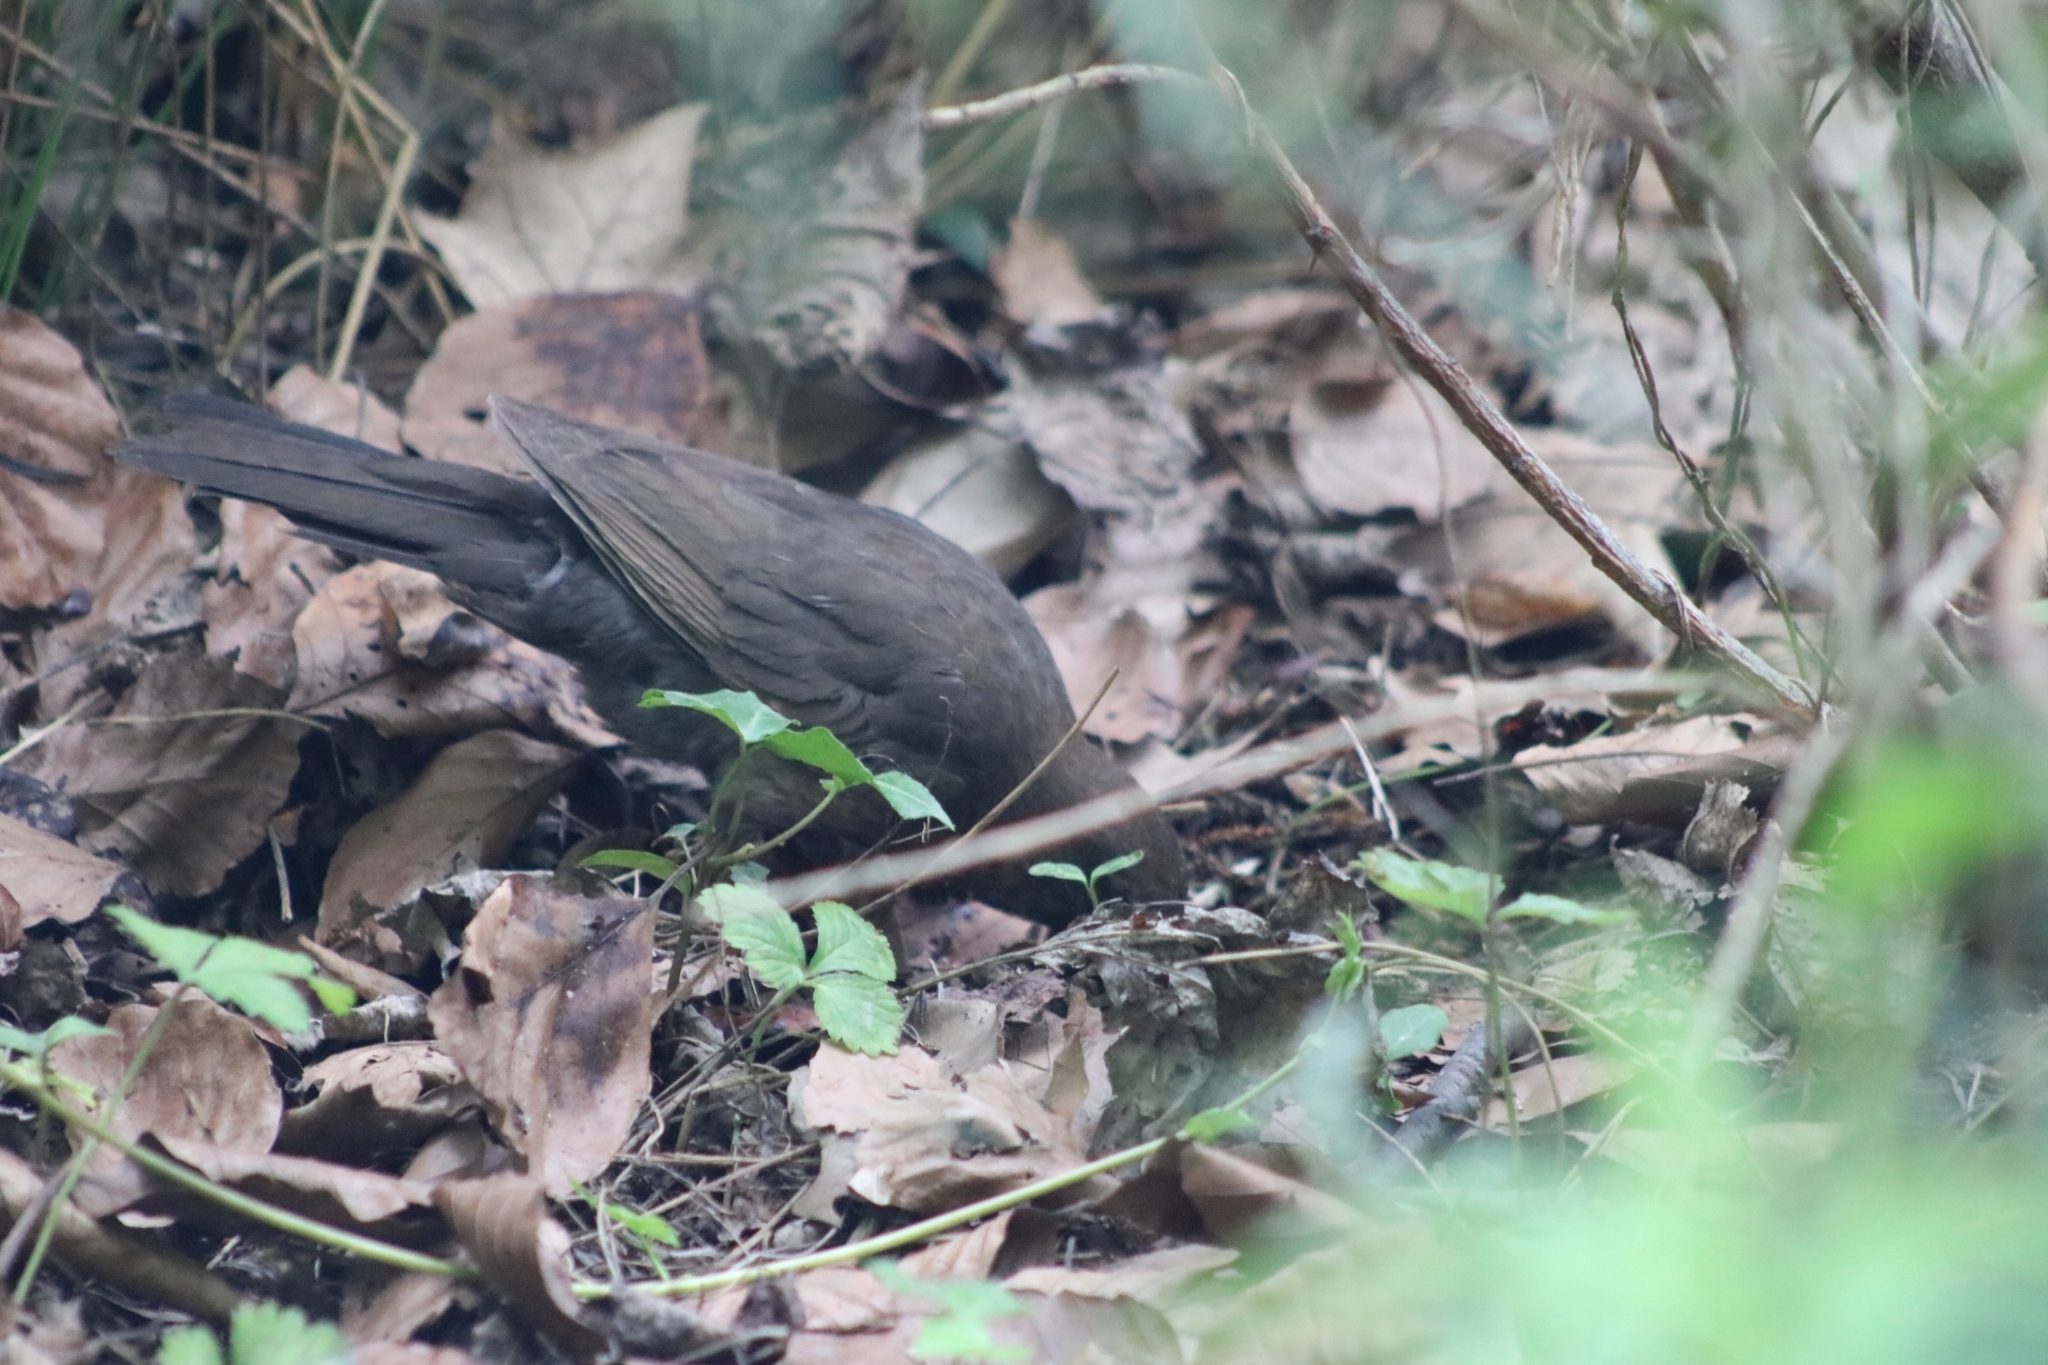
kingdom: Animalia
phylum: Chordata
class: Aves
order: Passeriformes
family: Turdidae
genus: Turdus
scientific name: Turdus merula
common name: Common blackbird
